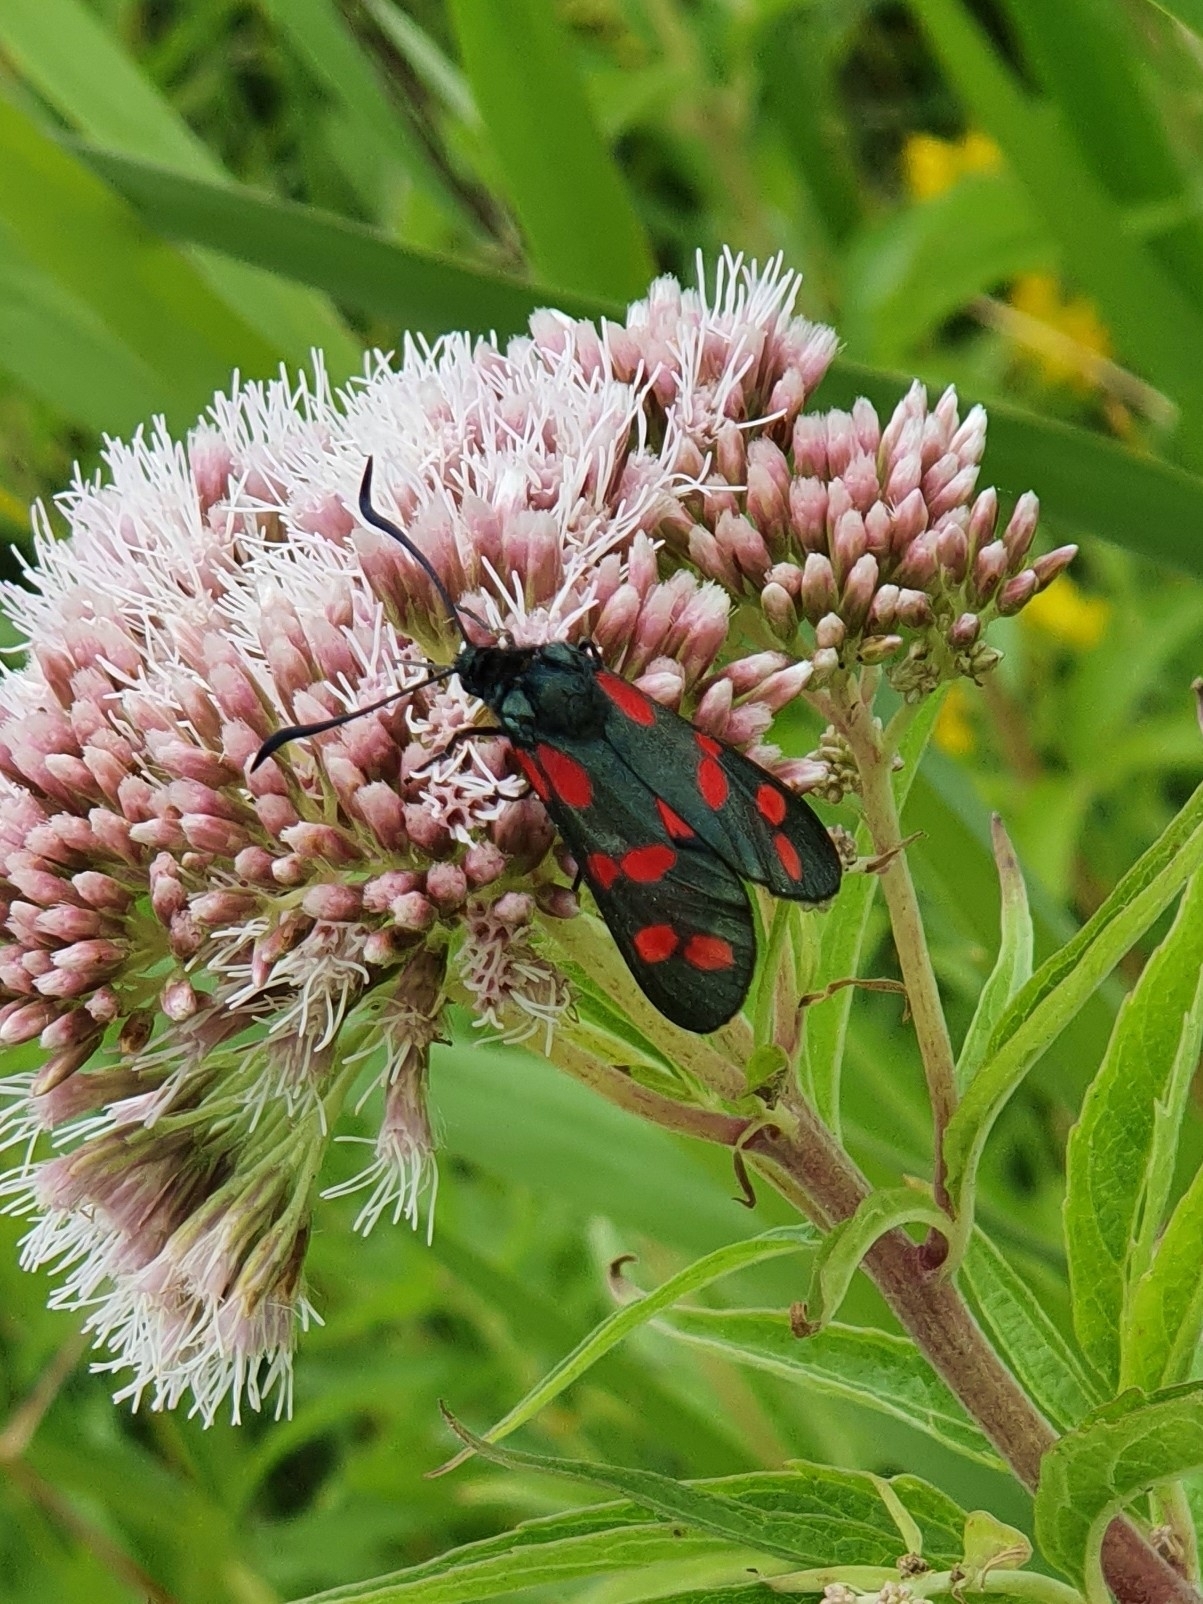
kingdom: Animalia
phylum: Arthropoda
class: Insecta
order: Lepidoptera
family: Zygaenidae
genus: Zygaena
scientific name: Zygaena filipendulae
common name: Six-spot burnet
